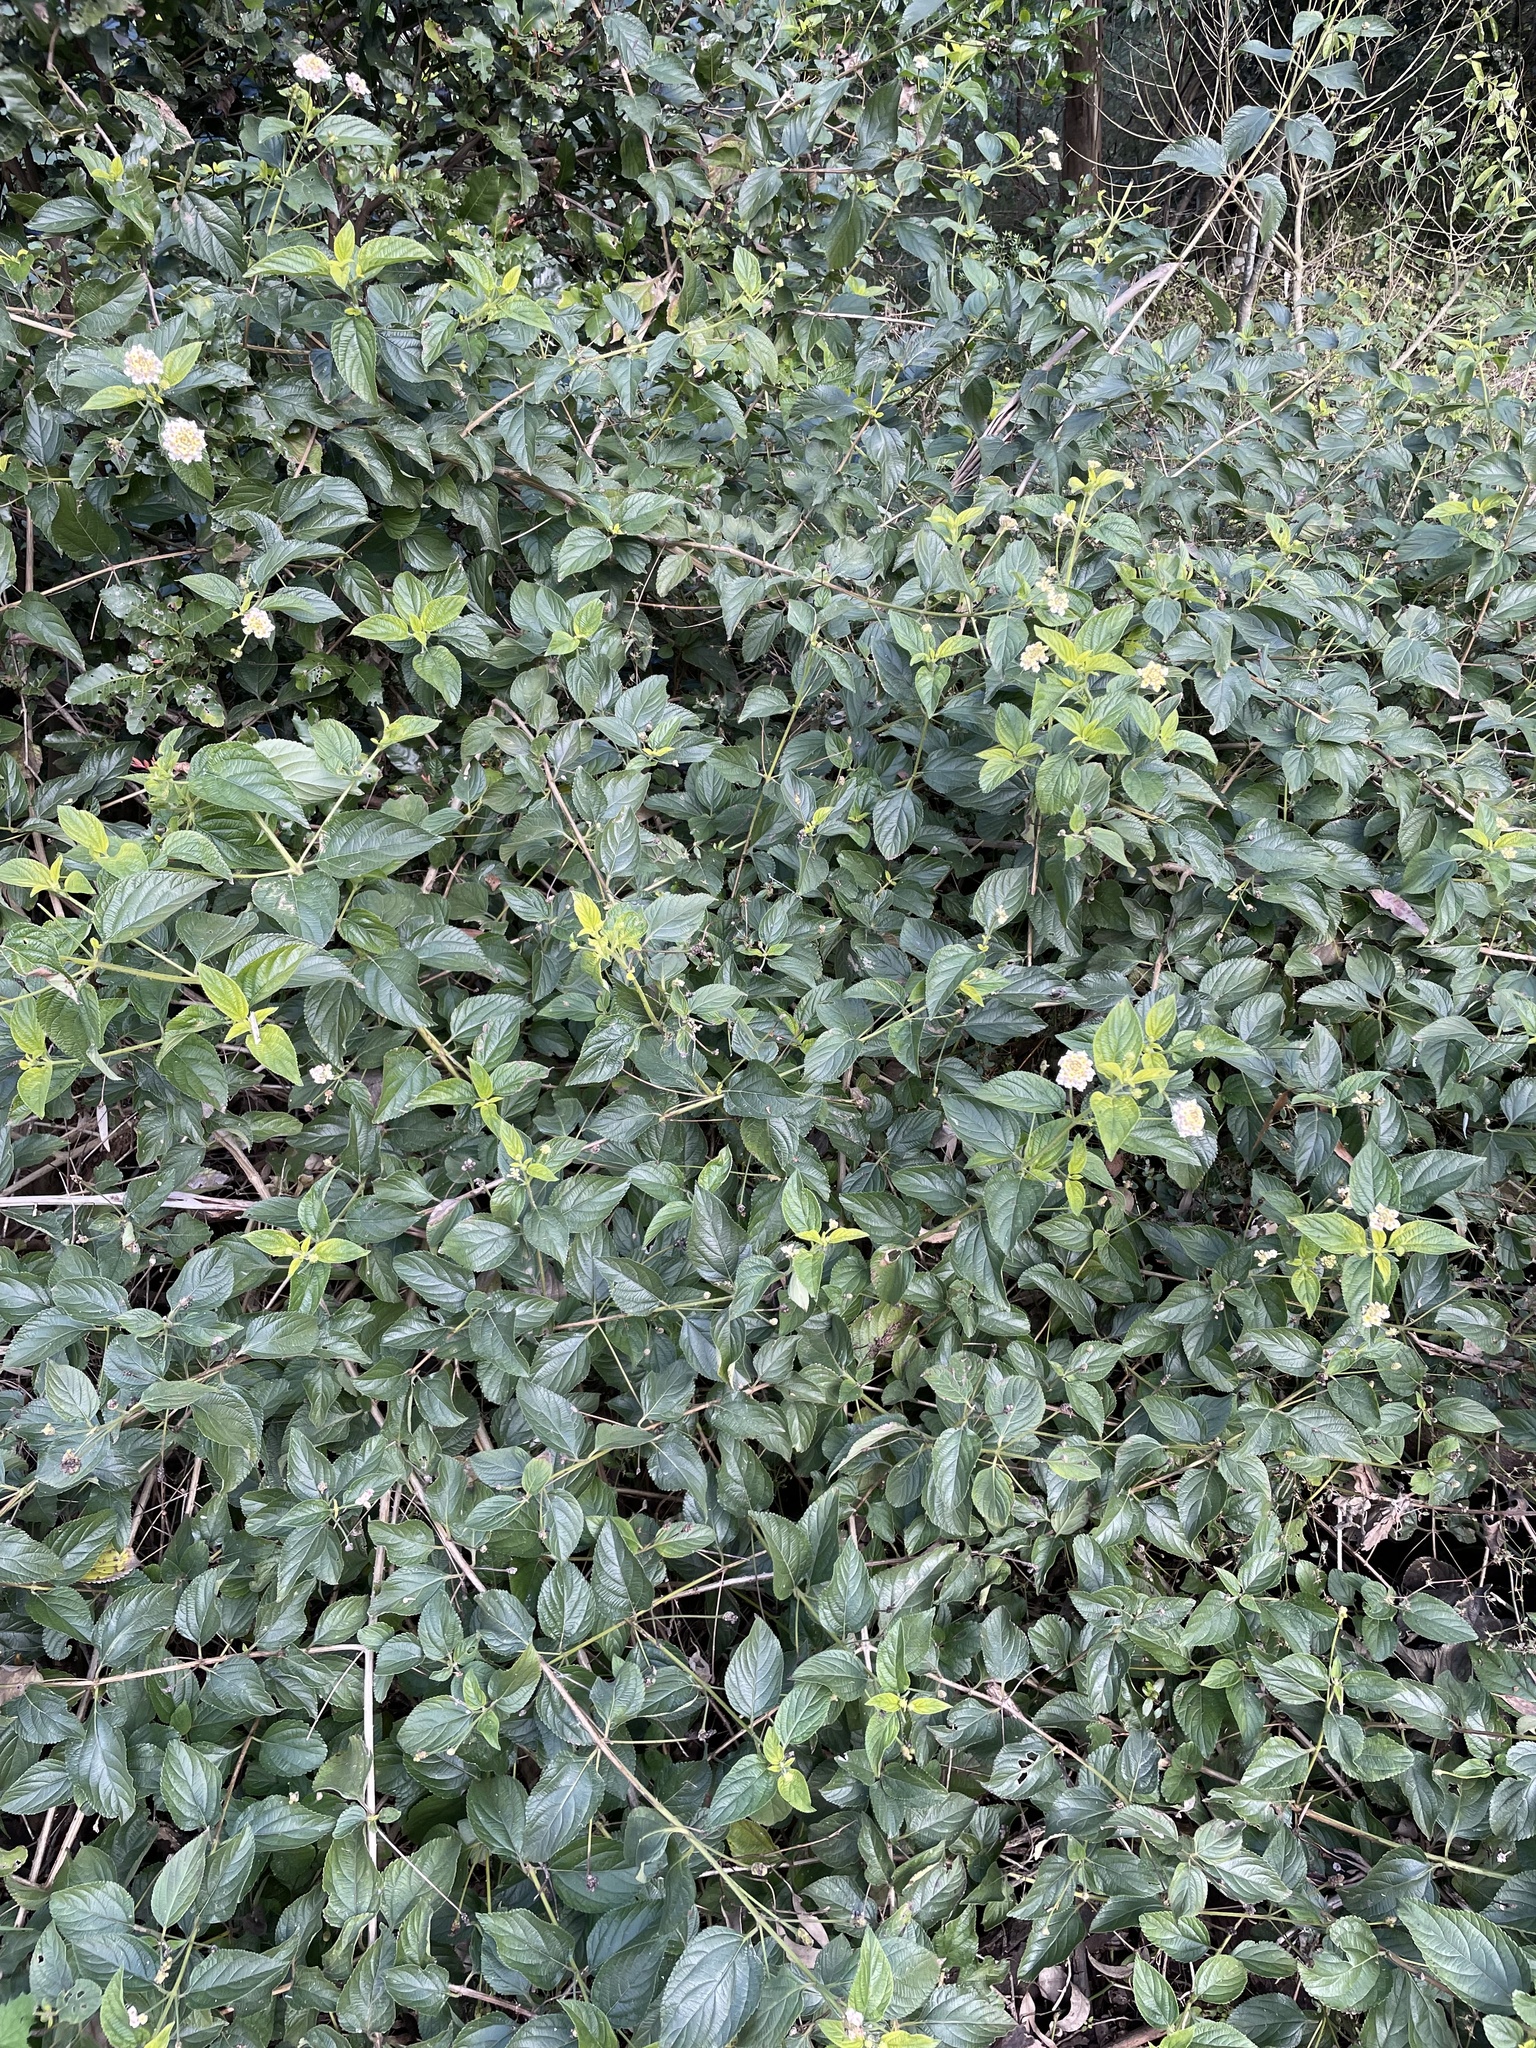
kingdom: Plantae
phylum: Tracheophyta
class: Magnoliopsida
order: Lamiales
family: Verbenaceae
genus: Lantana
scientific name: Lantana camara
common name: Lantana
